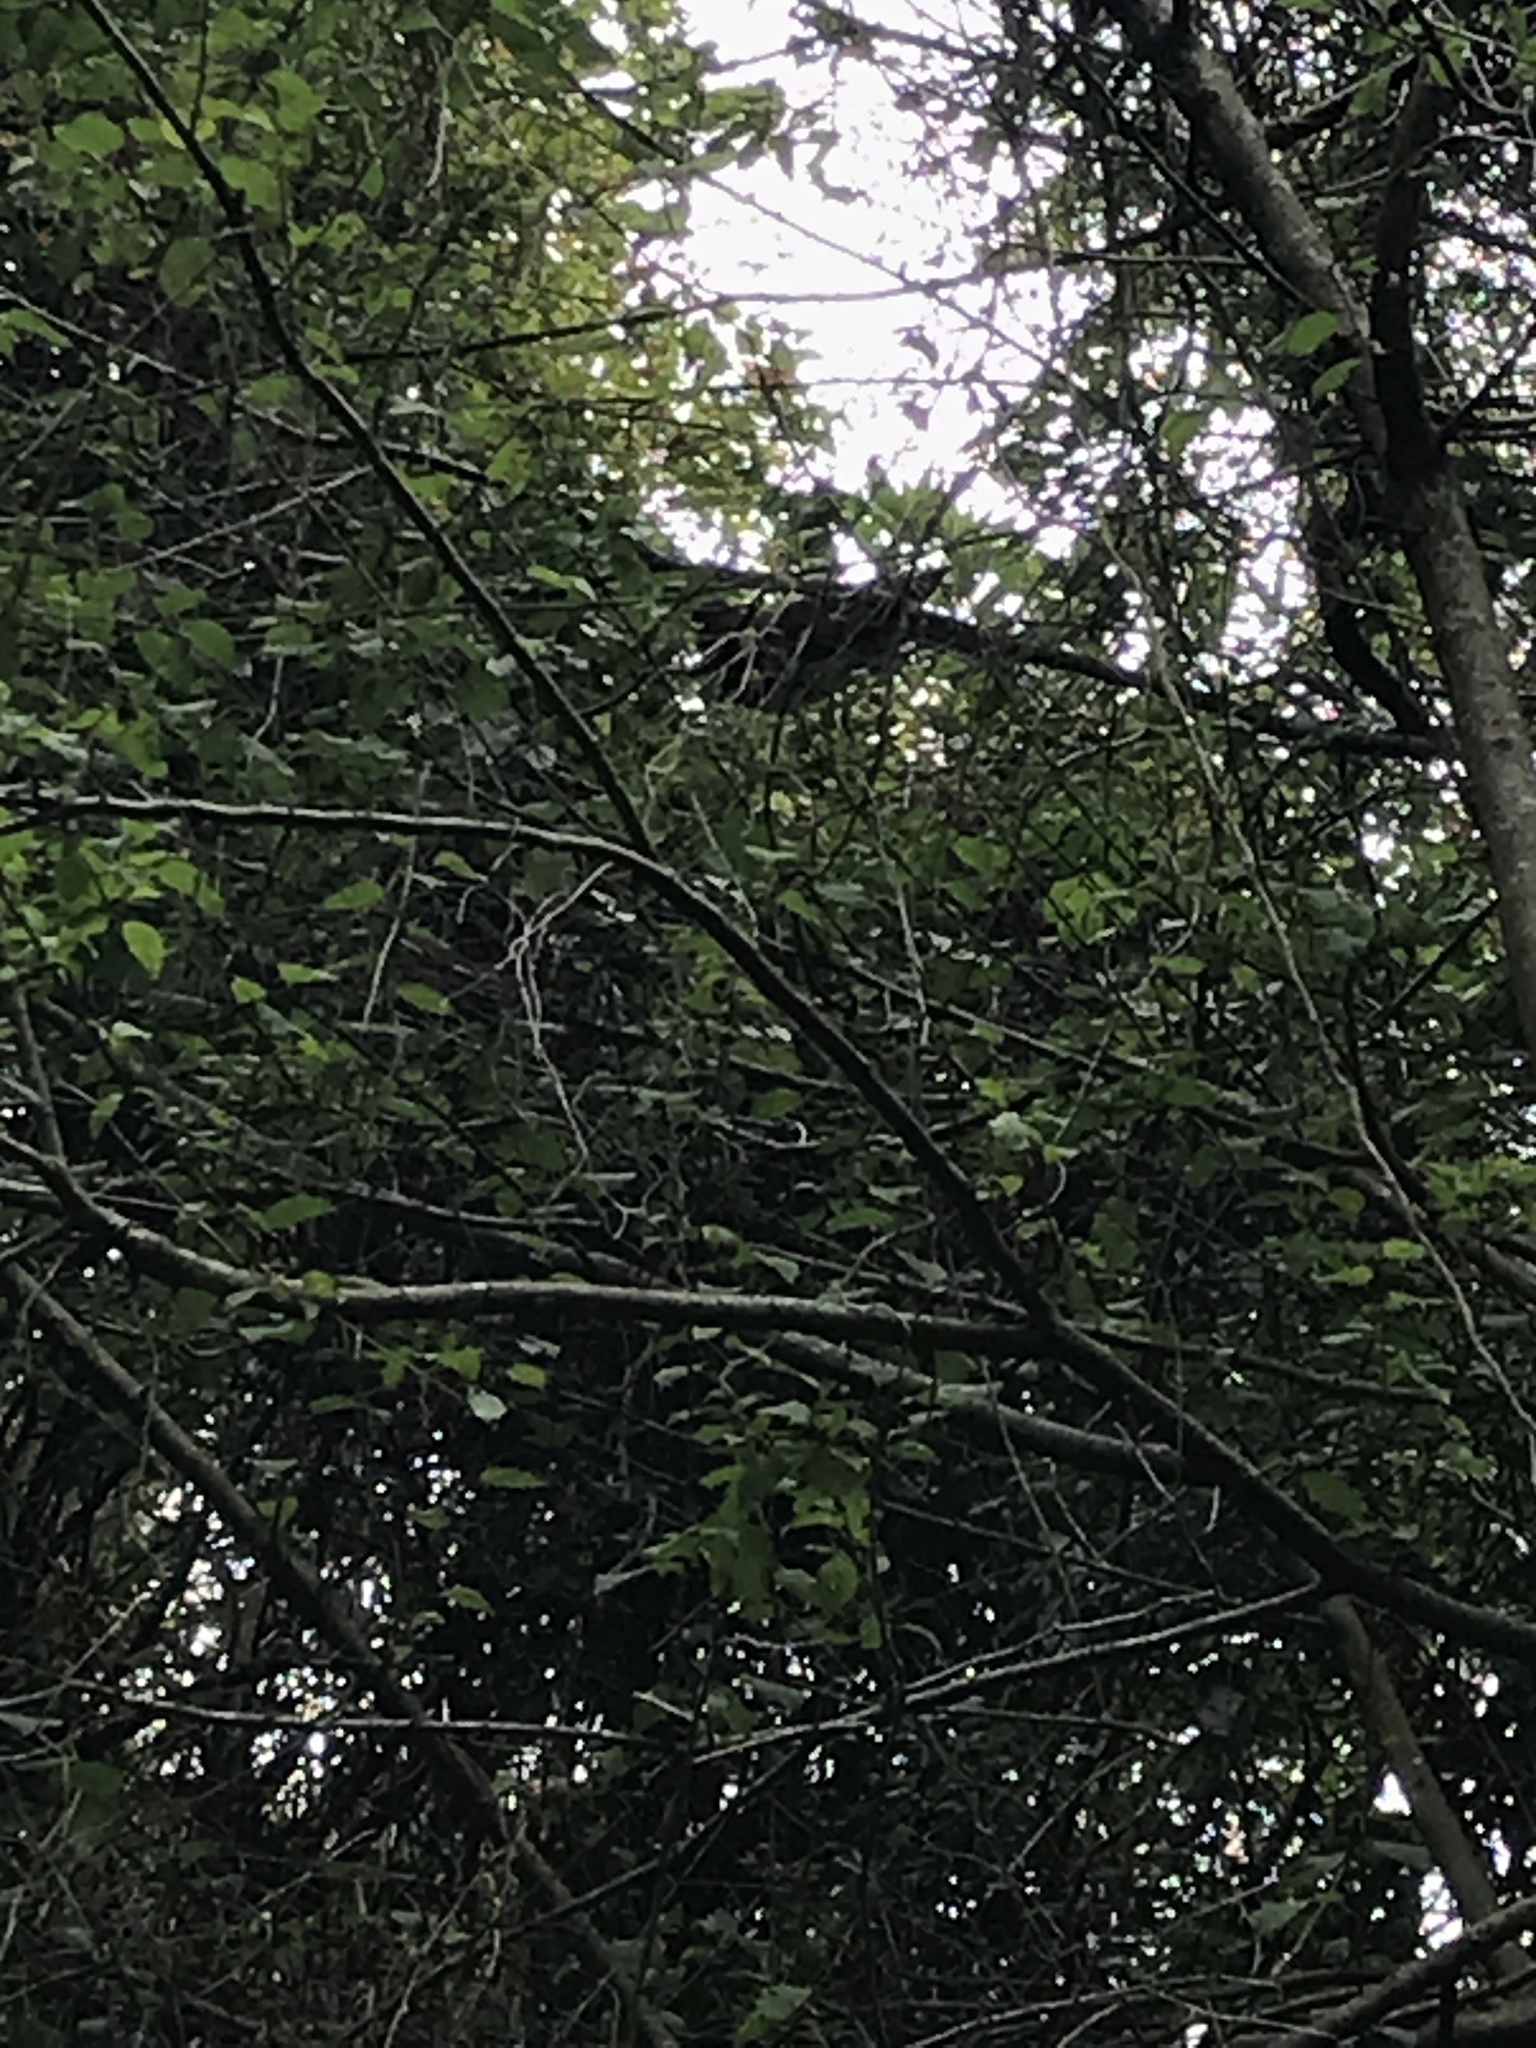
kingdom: Animalia
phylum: Chordata
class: Aves
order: Columbiformes
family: Columbidae
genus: Hemiphaga
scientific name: Hemiphaga novaeseelandiae
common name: New zealand pigeon
